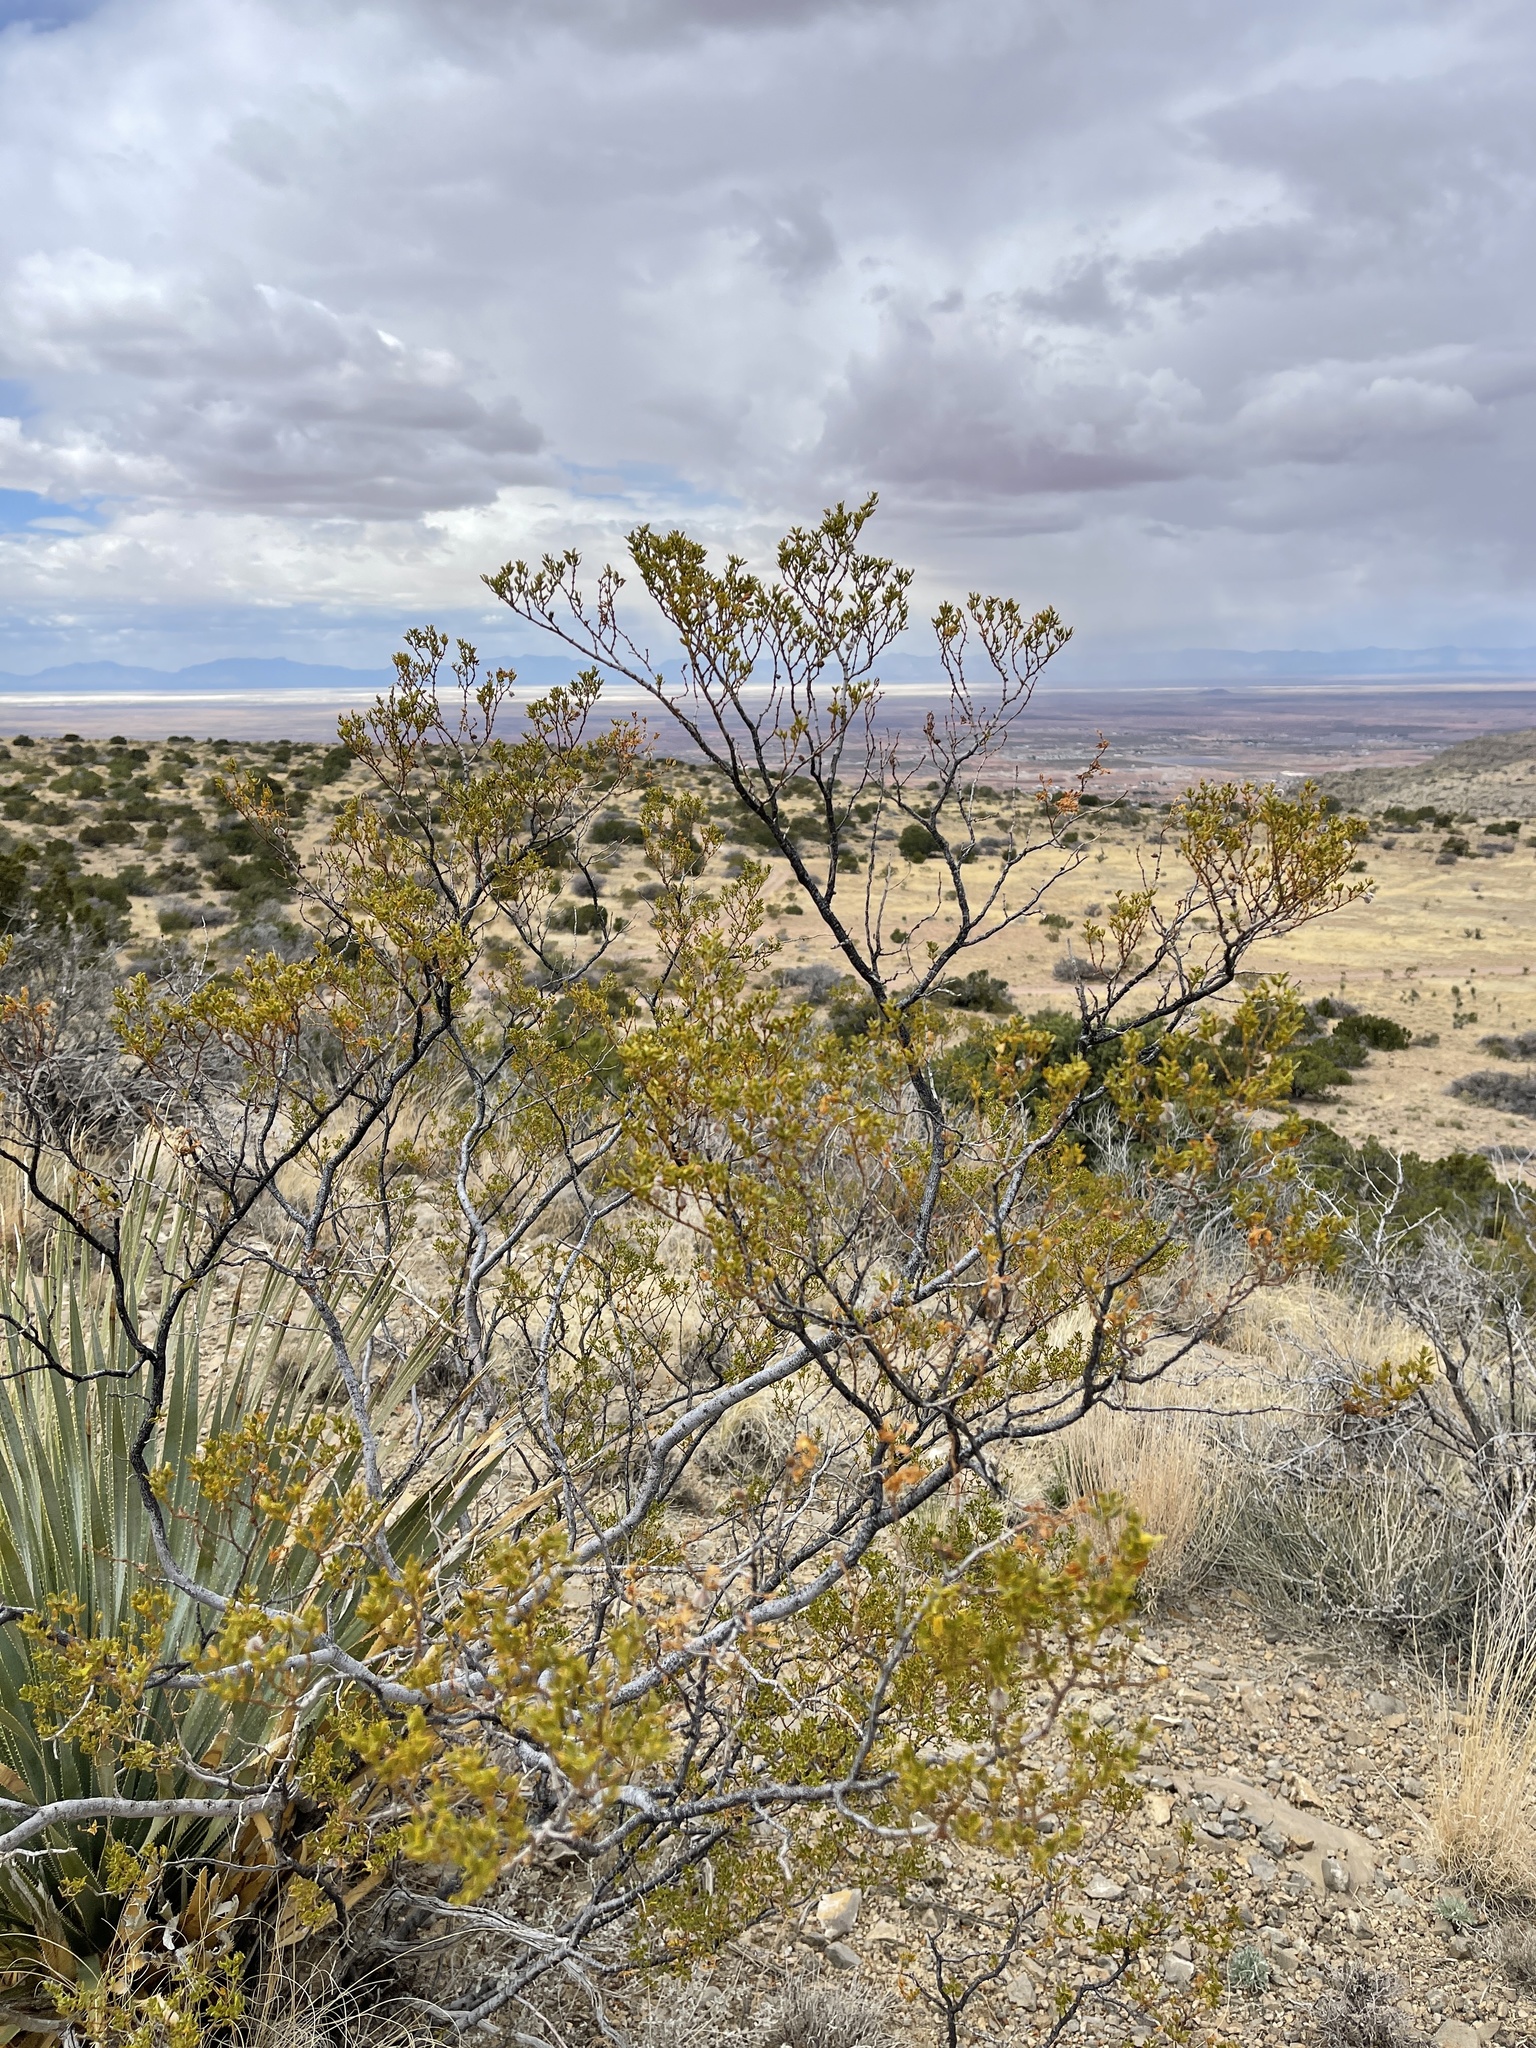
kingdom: Plantae
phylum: Tracheophyta
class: Magnoliopsida
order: Zygophyllales
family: Zygophyllaceae
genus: Larrea
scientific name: Larrea tridentata
